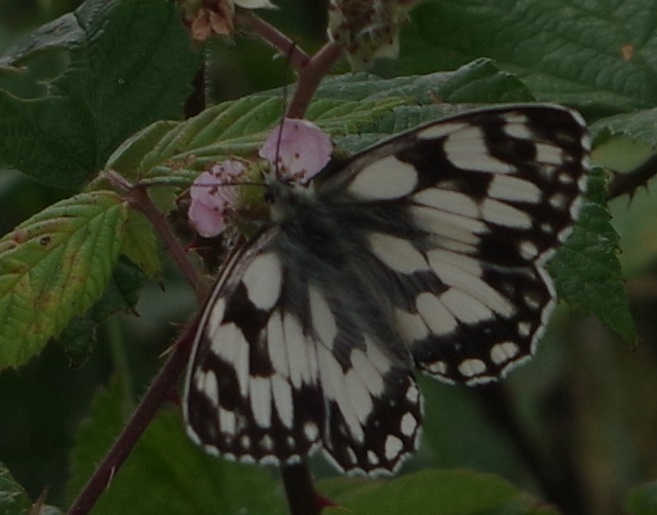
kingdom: Animalia
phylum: Arthropoda
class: Insecta
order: Lepidoptera
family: Nymphalidae
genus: Melanargia
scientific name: Melanargia galathea
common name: Marbled white
